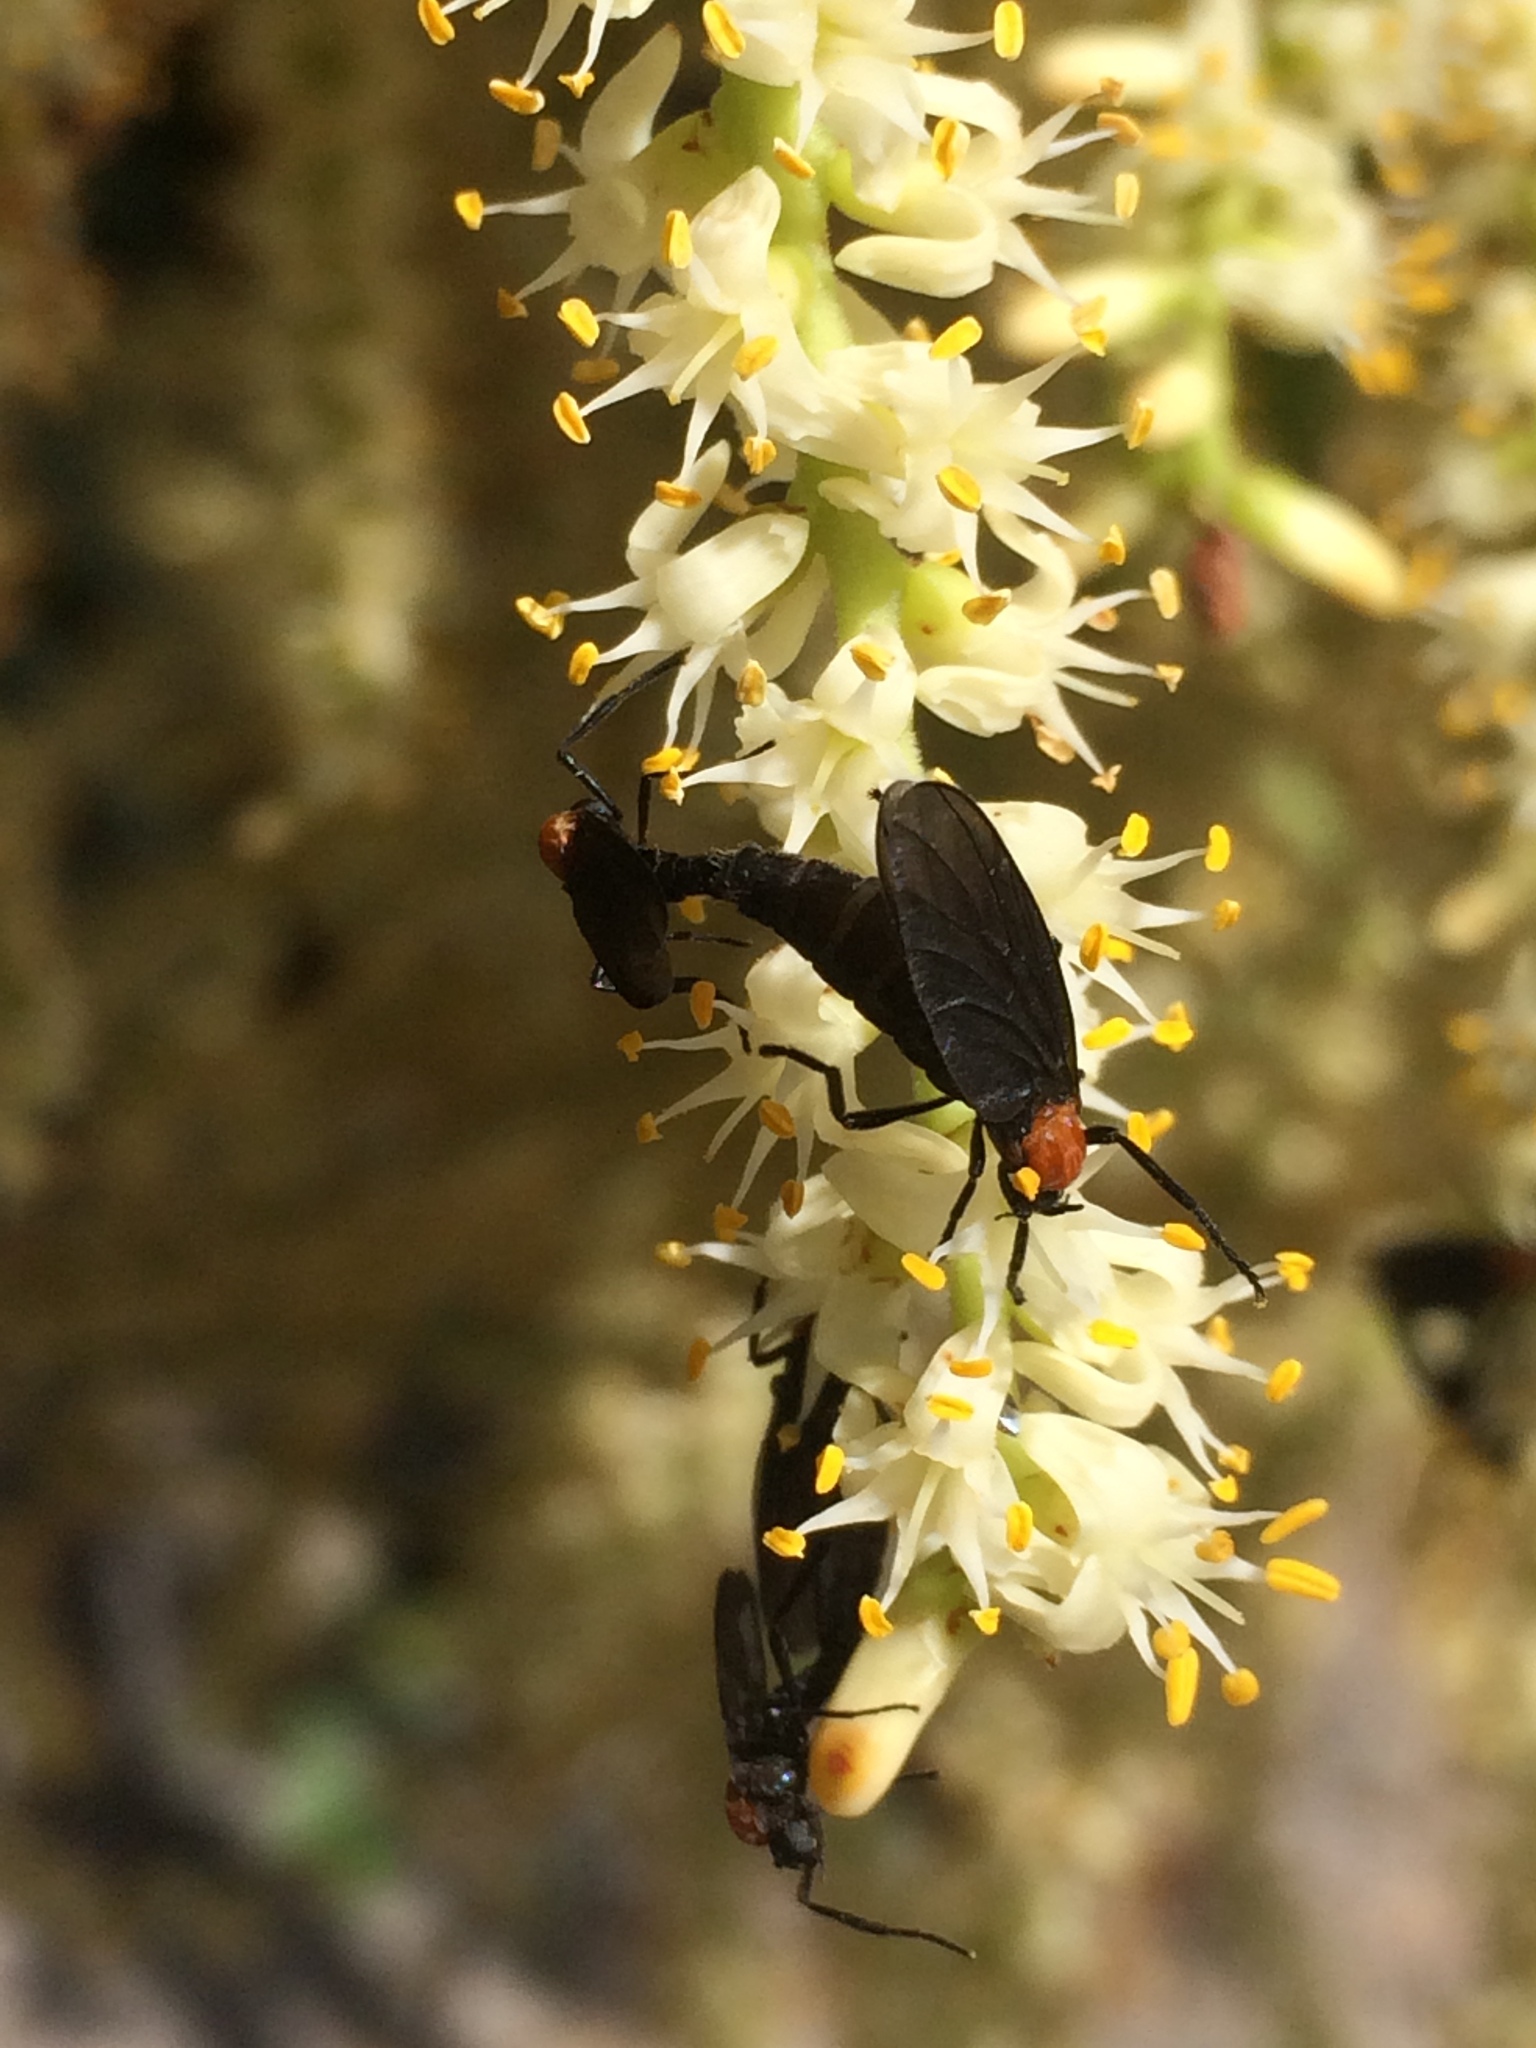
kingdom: Animalia
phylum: Arthropoda
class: Insecta
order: Diptera
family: Bibionidae
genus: Plecia
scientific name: Plecia nearctica
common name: March fly
